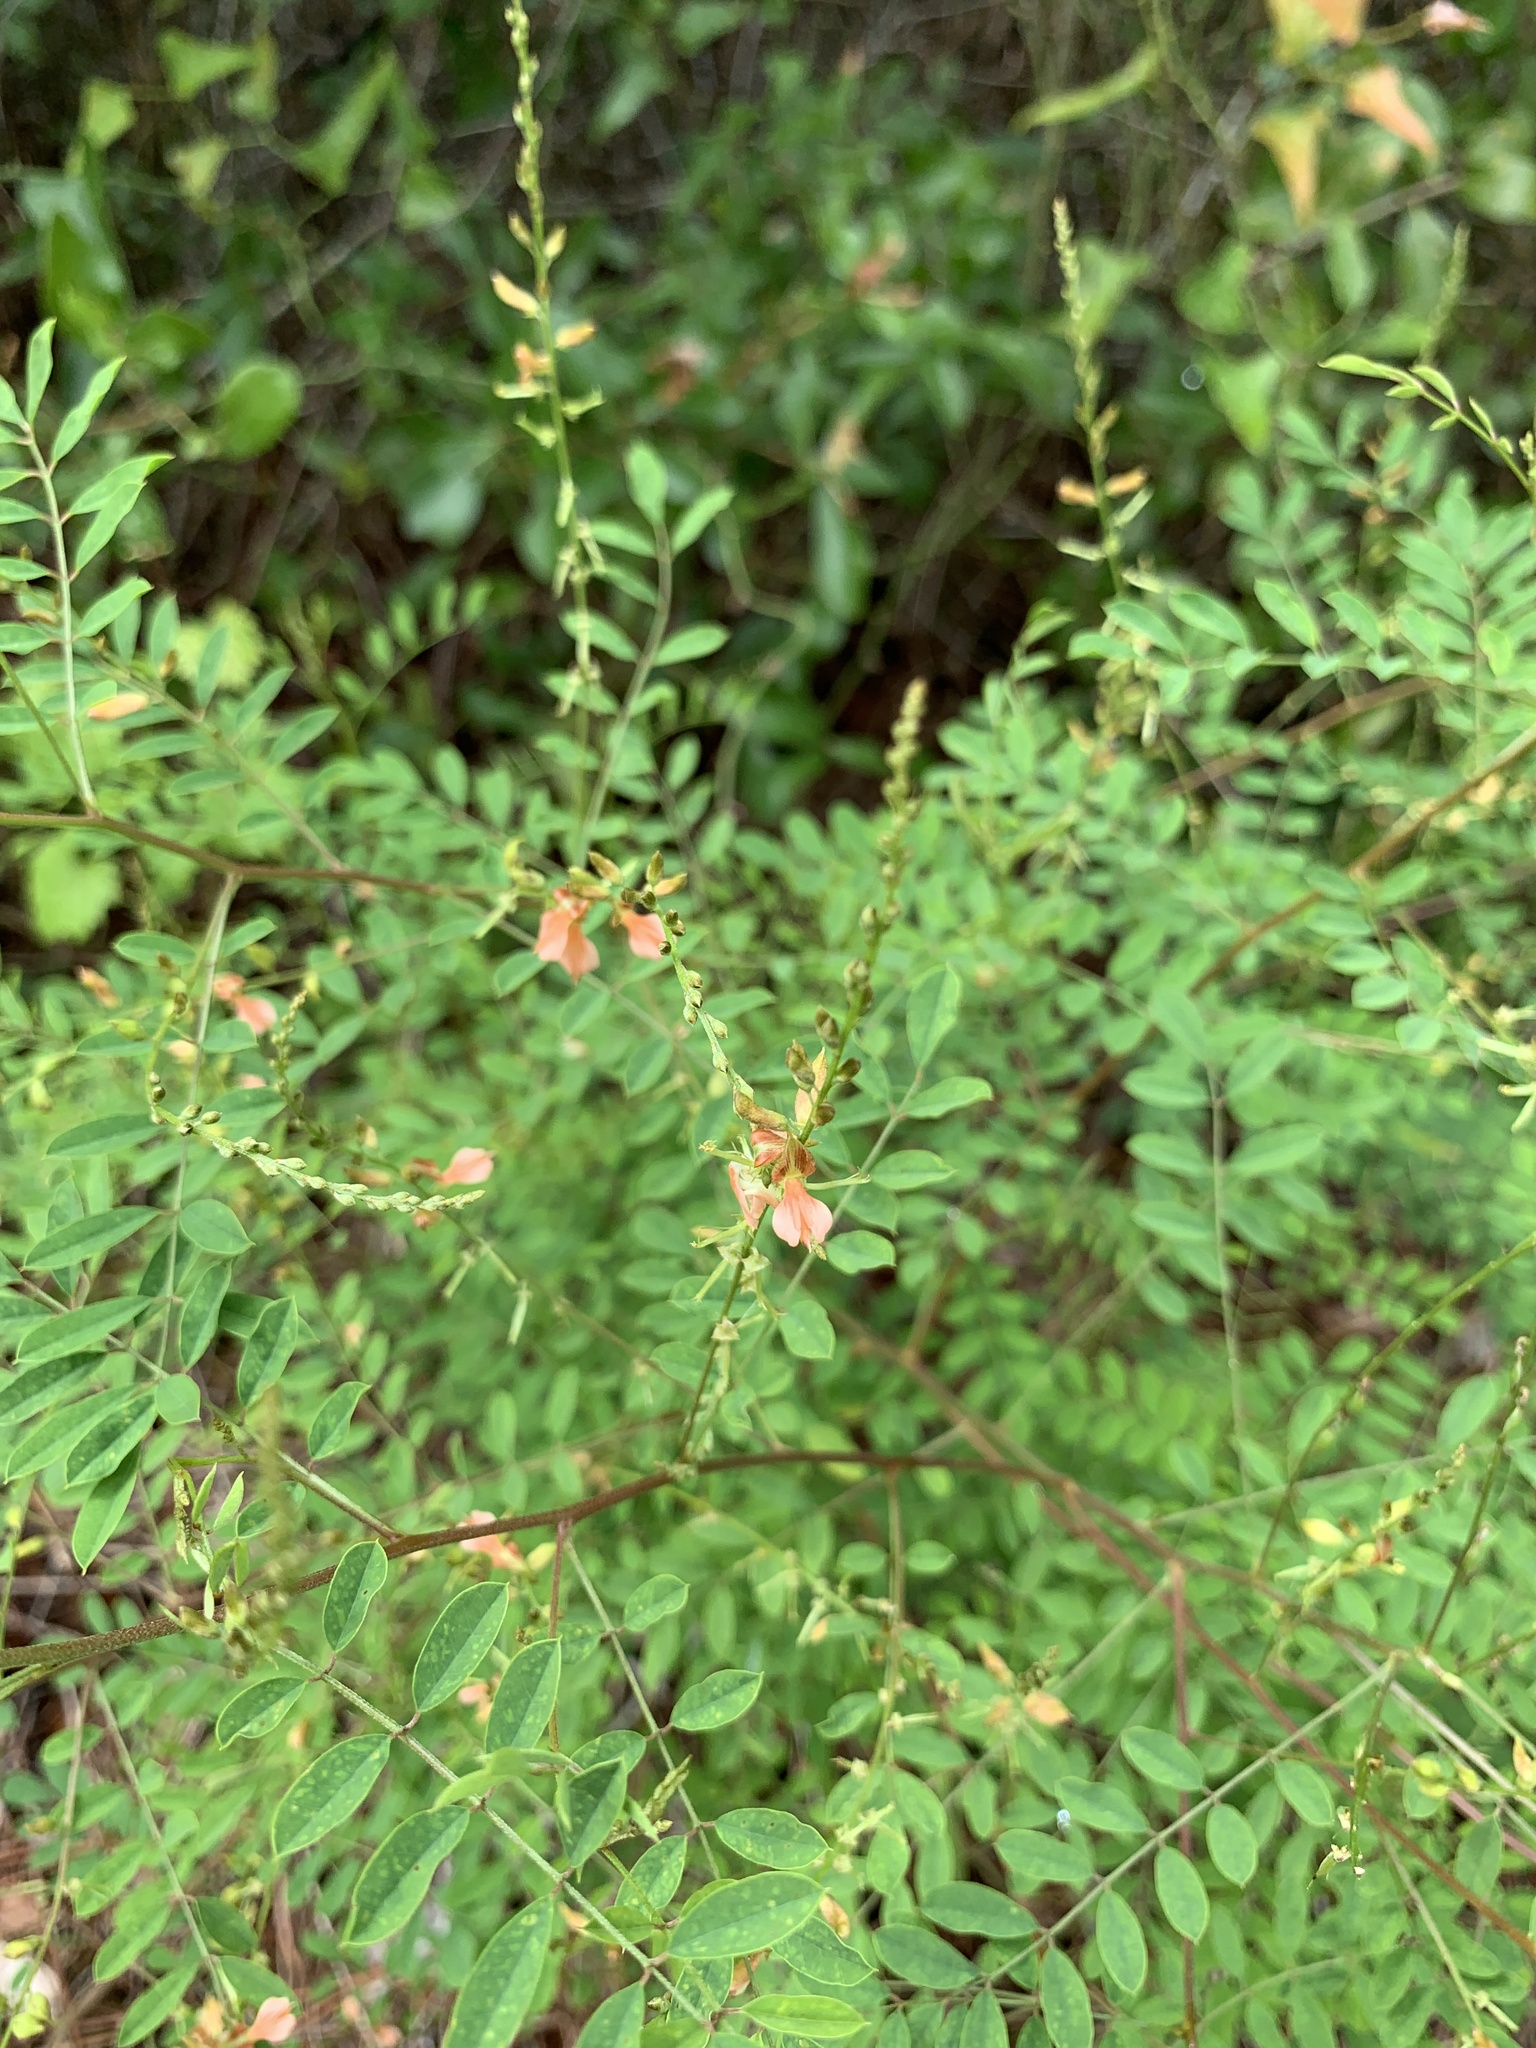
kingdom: Plantae
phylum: Tracheophyta
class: Magnoliopsida
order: Fabales
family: Fabaceae
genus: Indigofera
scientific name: Indigofera caroliniana
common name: Wild indigo
